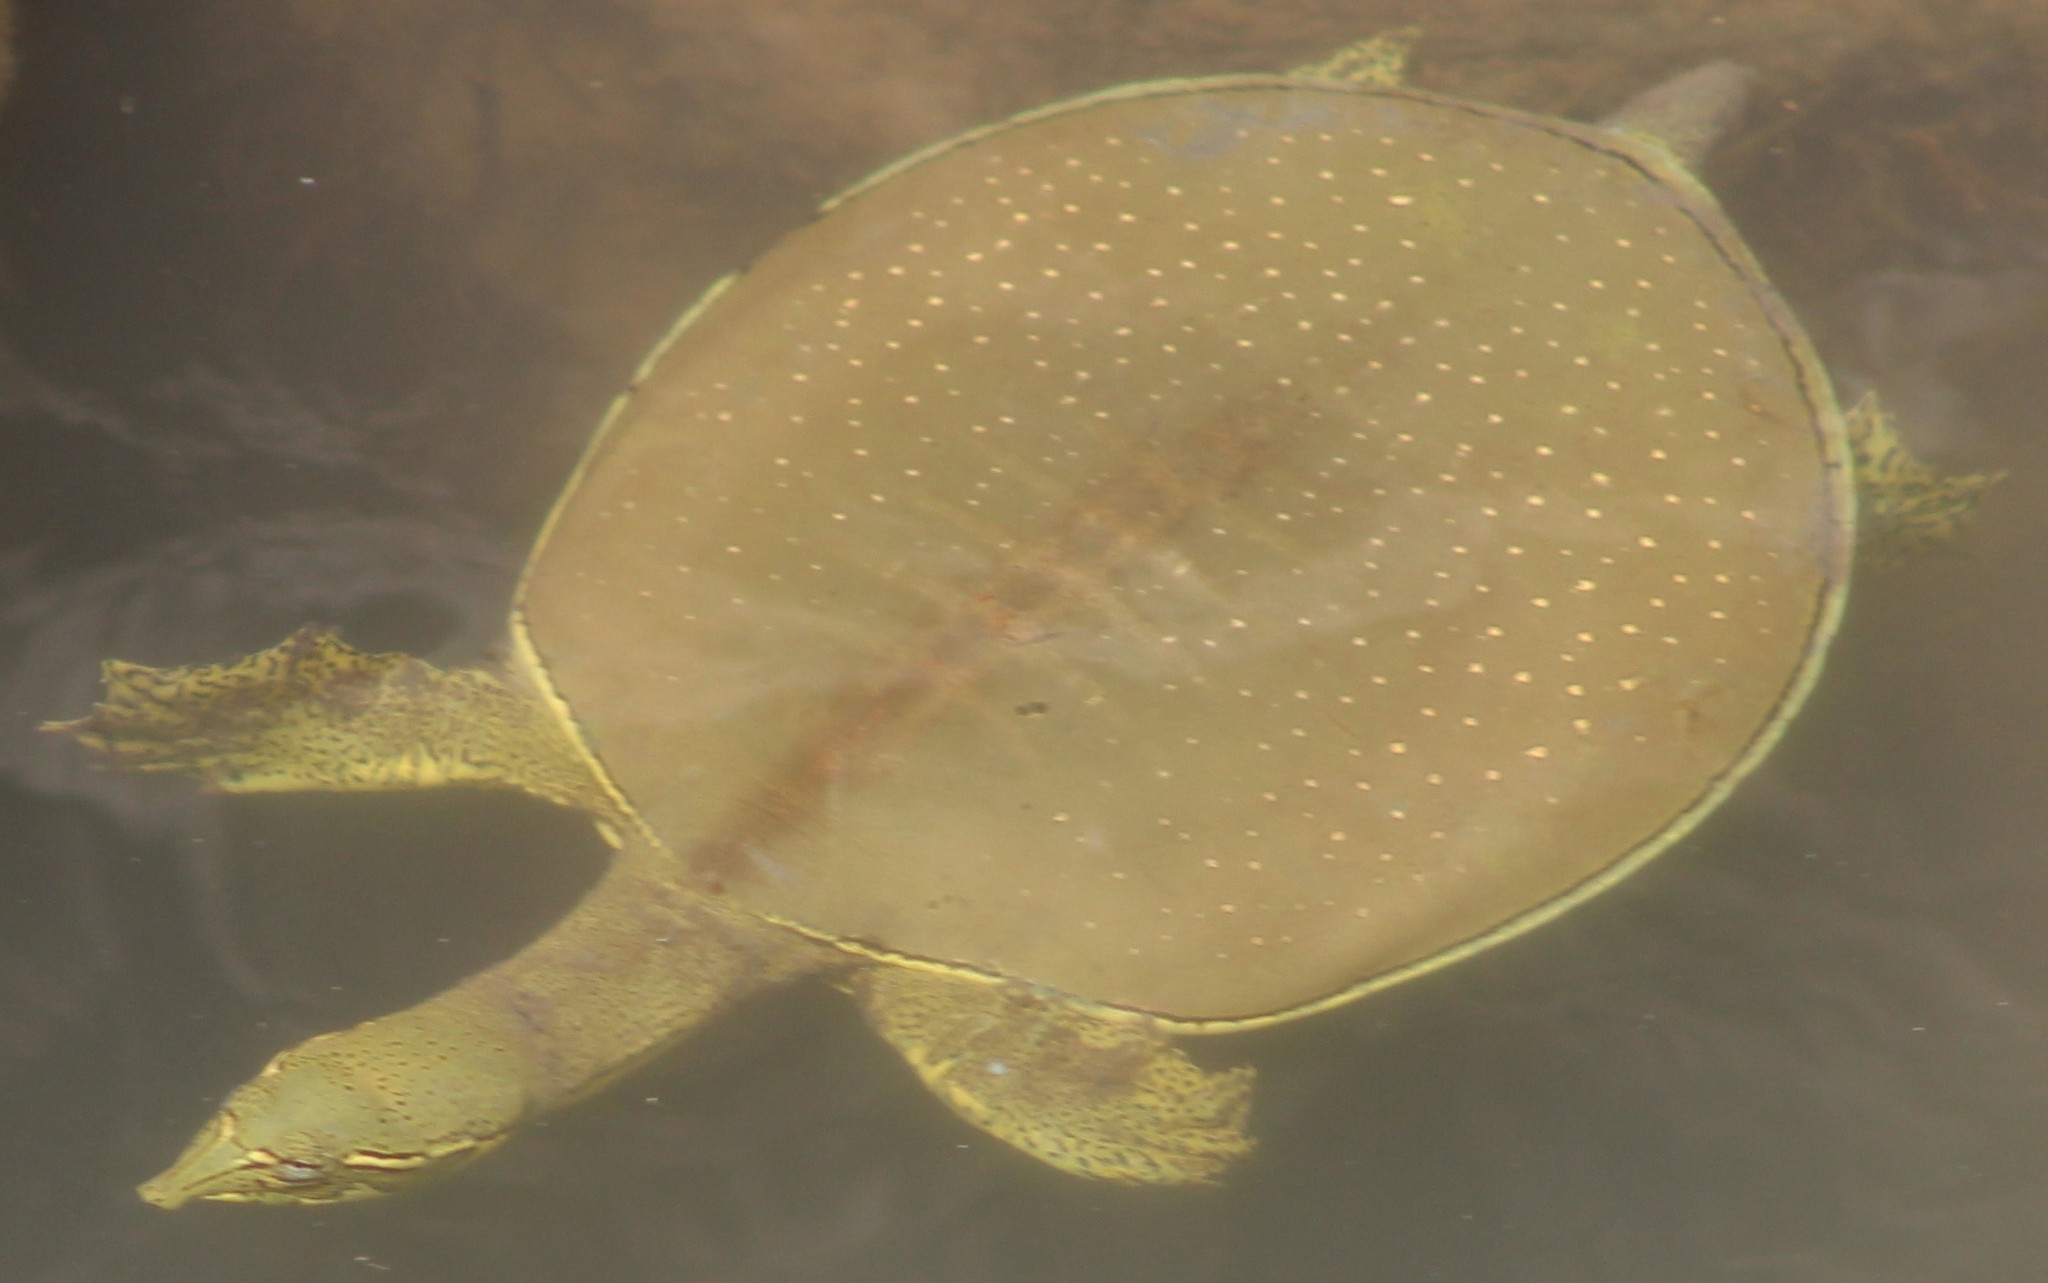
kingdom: Animalia
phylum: Chordata
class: Testudines
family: Trionychidae
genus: Apalone
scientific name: Apalone spinifera
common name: Spiny softshell turtle
